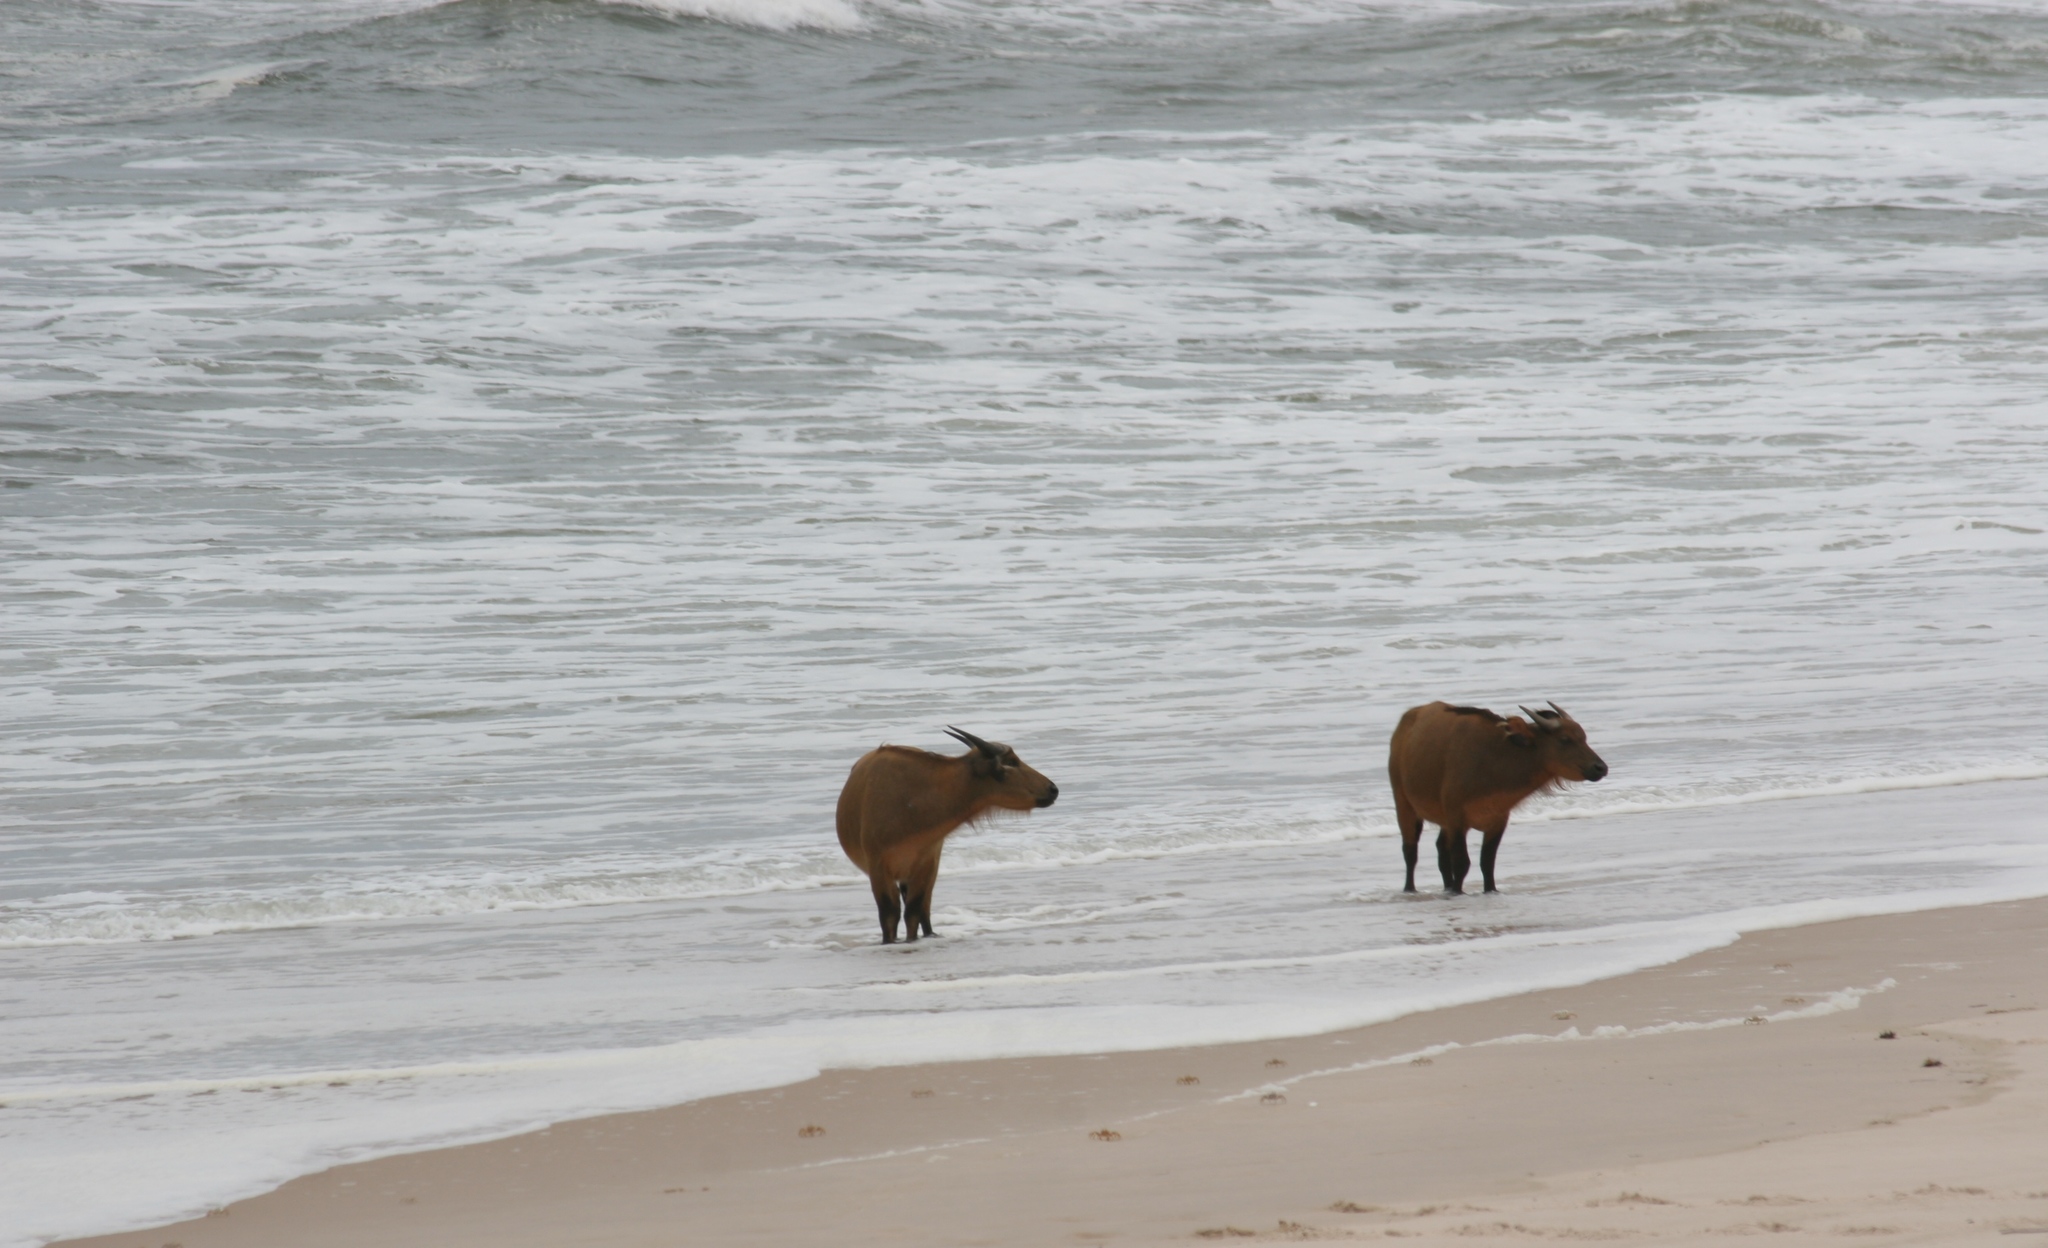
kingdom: Animalia
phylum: Chordata
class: Mammalia
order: Artiodactyla
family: Bovidae
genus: Syncerus
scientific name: Syncerus caffer
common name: African buffalo
